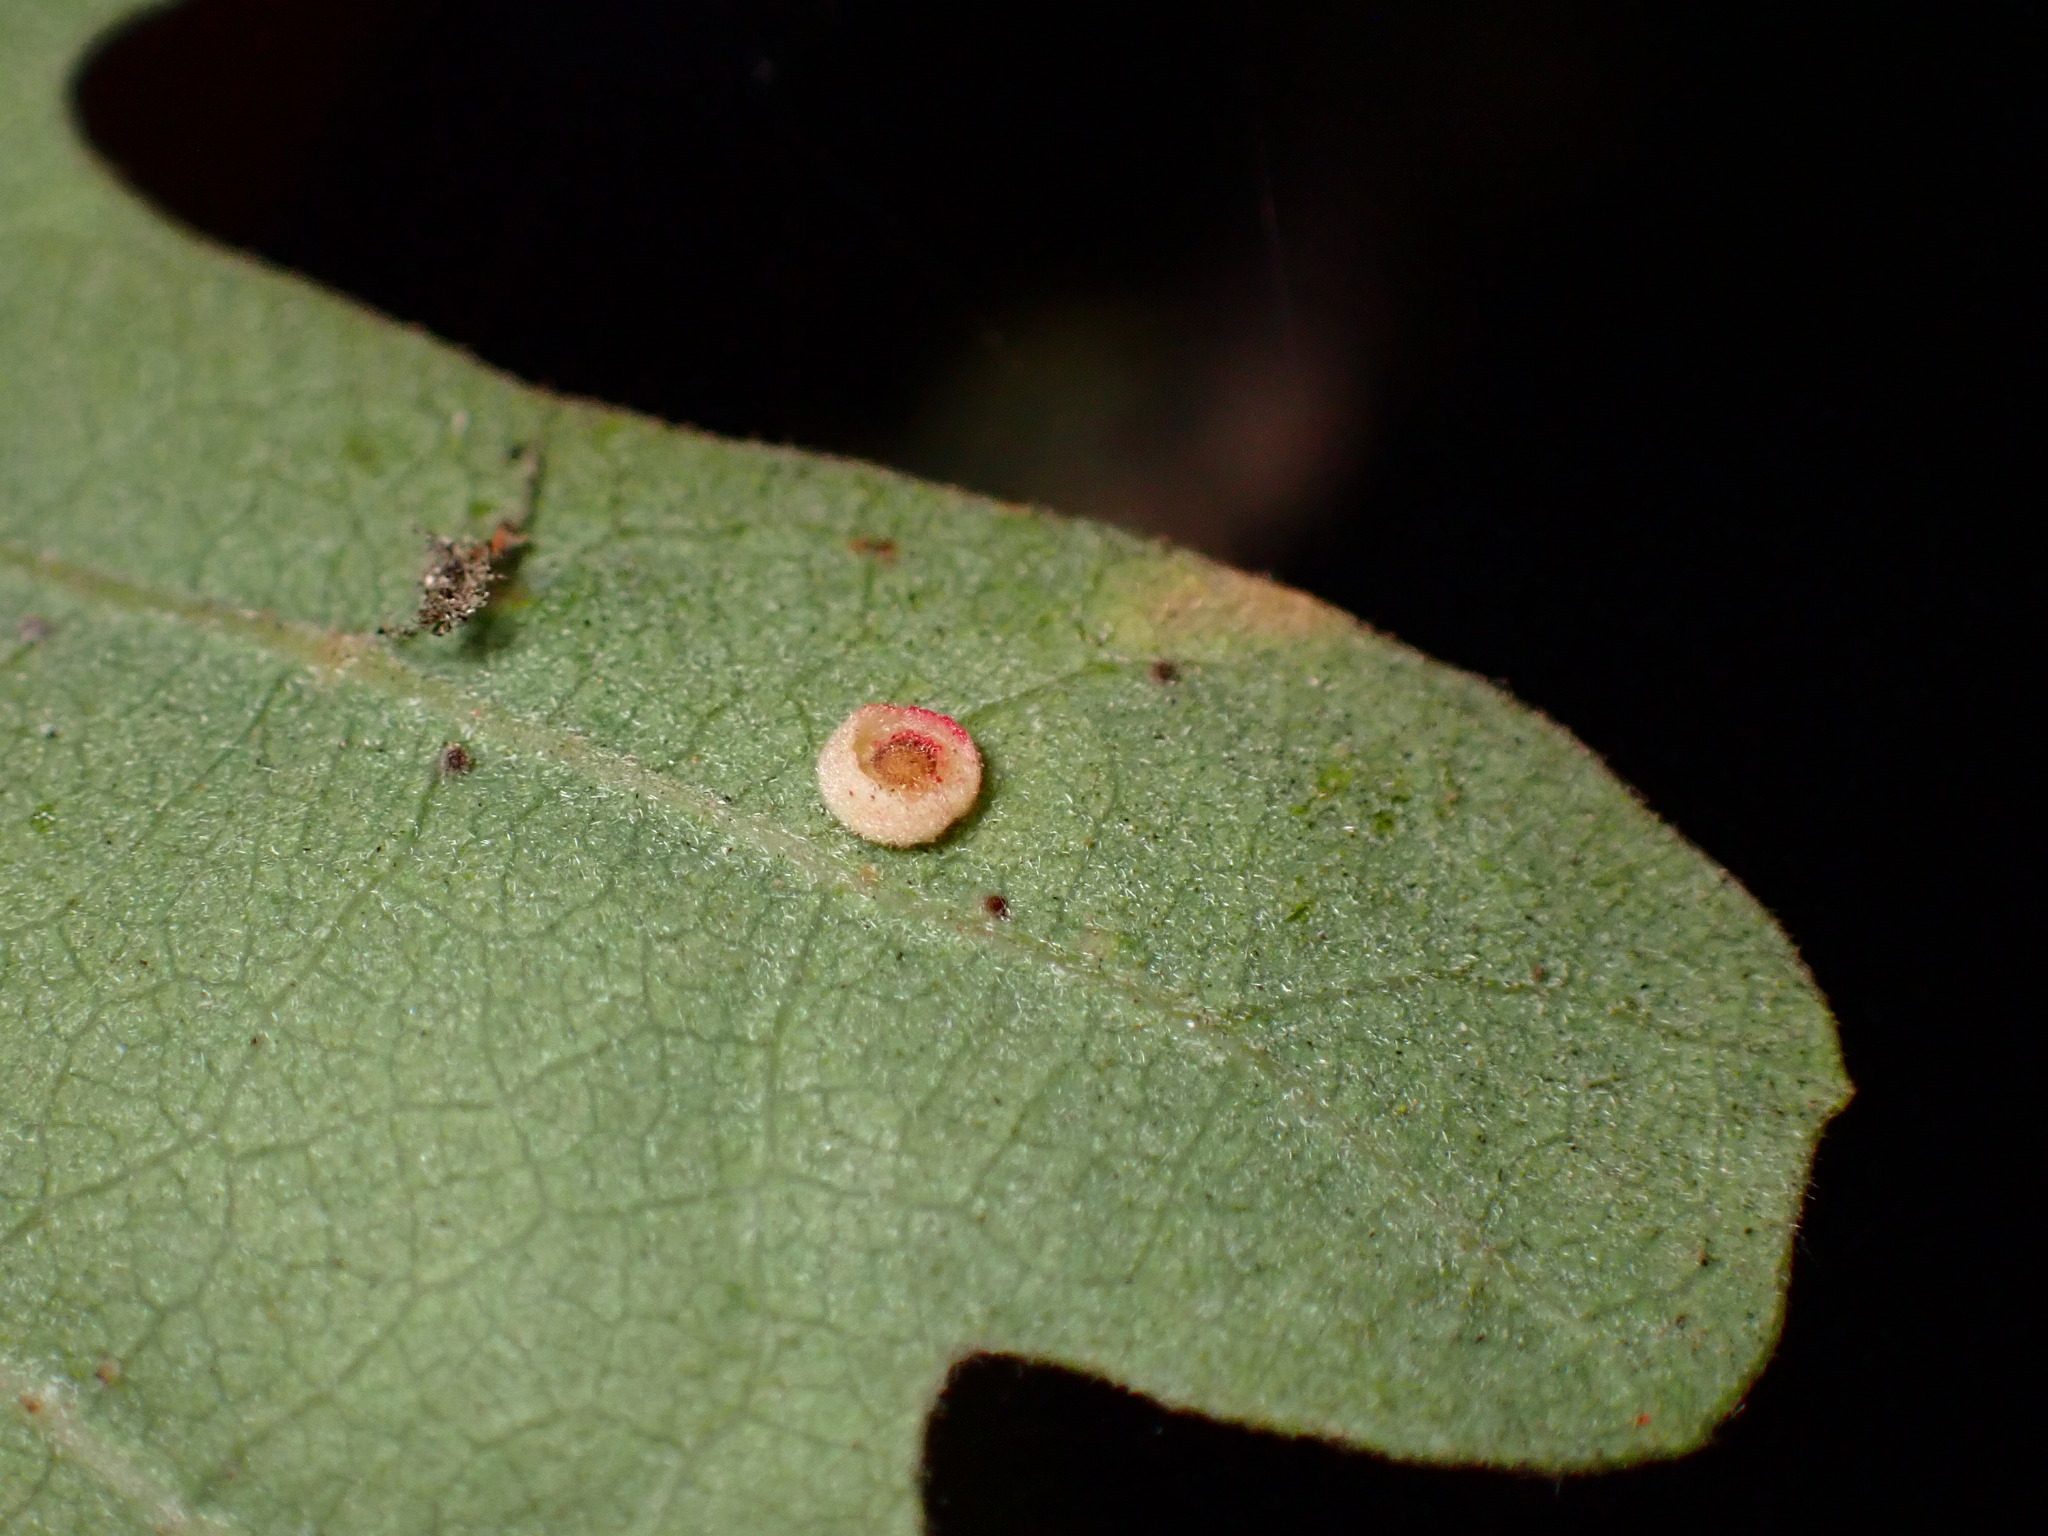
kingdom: Animalia
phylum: Arthropoda
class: Insecta
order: Hymenoptera
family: Cynipidae
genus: Andricus
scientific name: Andricus
